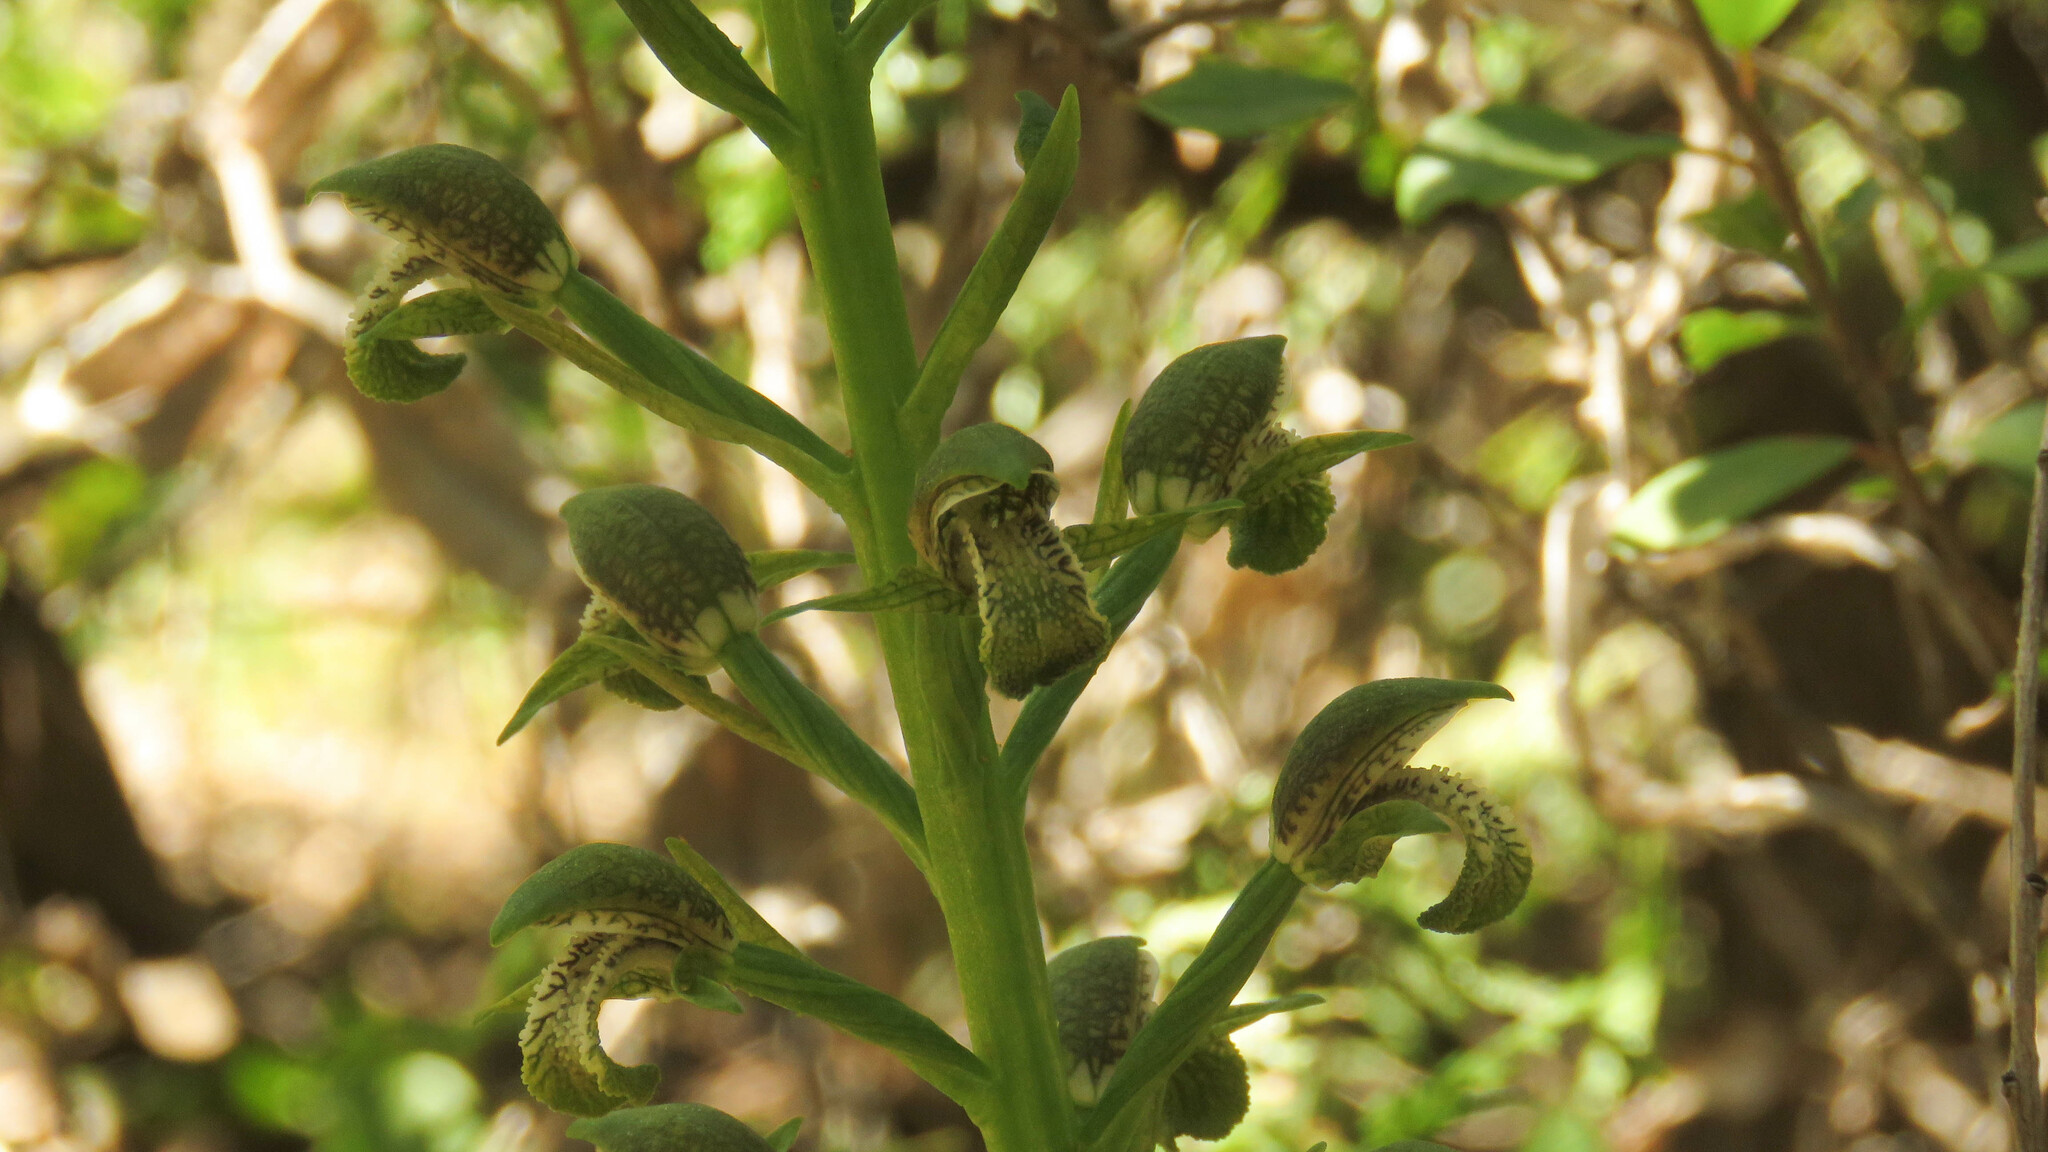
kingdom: Plantae
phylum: Tracheophyta
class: Liliopsida
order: Asparagales
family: Orchidaceae
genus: Chloraea
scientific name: Chloraea cylindrostachya
